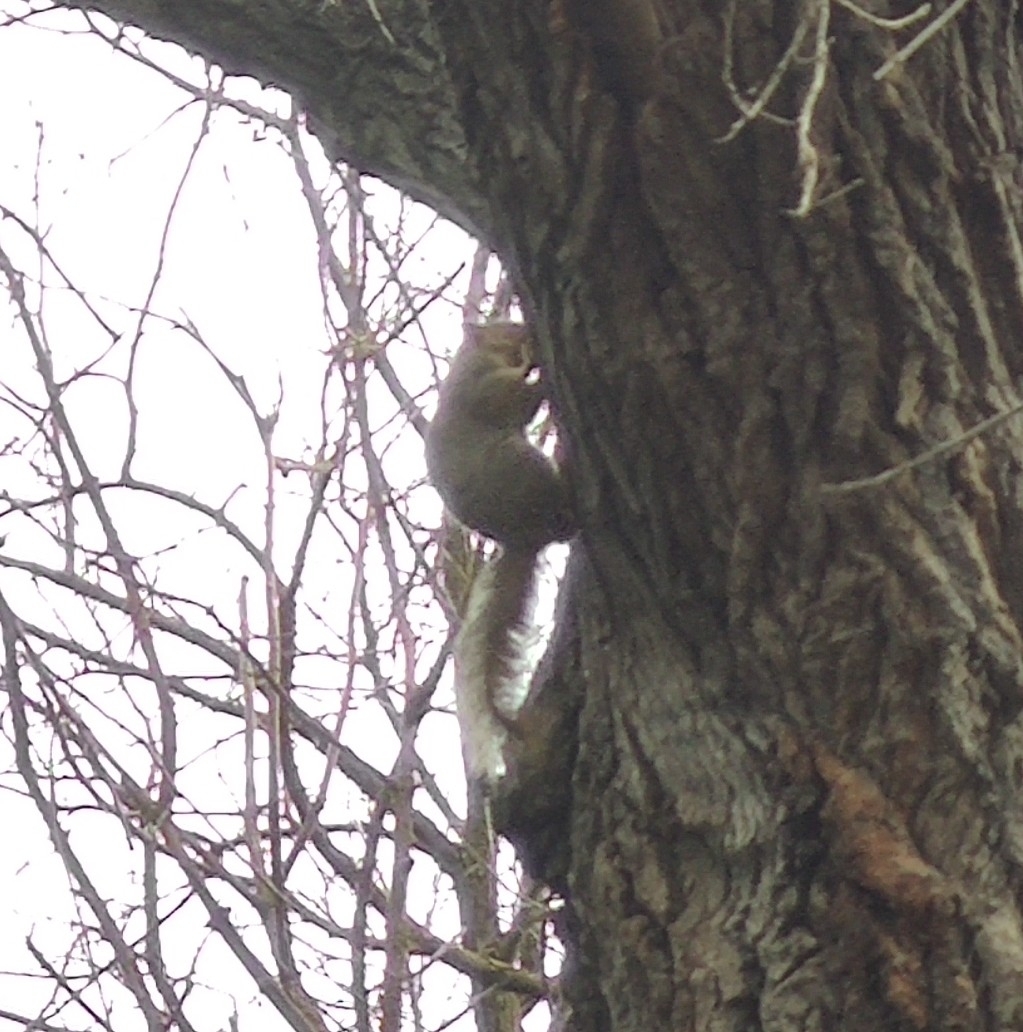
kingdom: Animalia
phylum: Chordata
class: Mammalia
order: Rodentia
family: Sciuridae
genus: Sciurus
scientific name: Sciurus niger
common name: Fox squirrel
